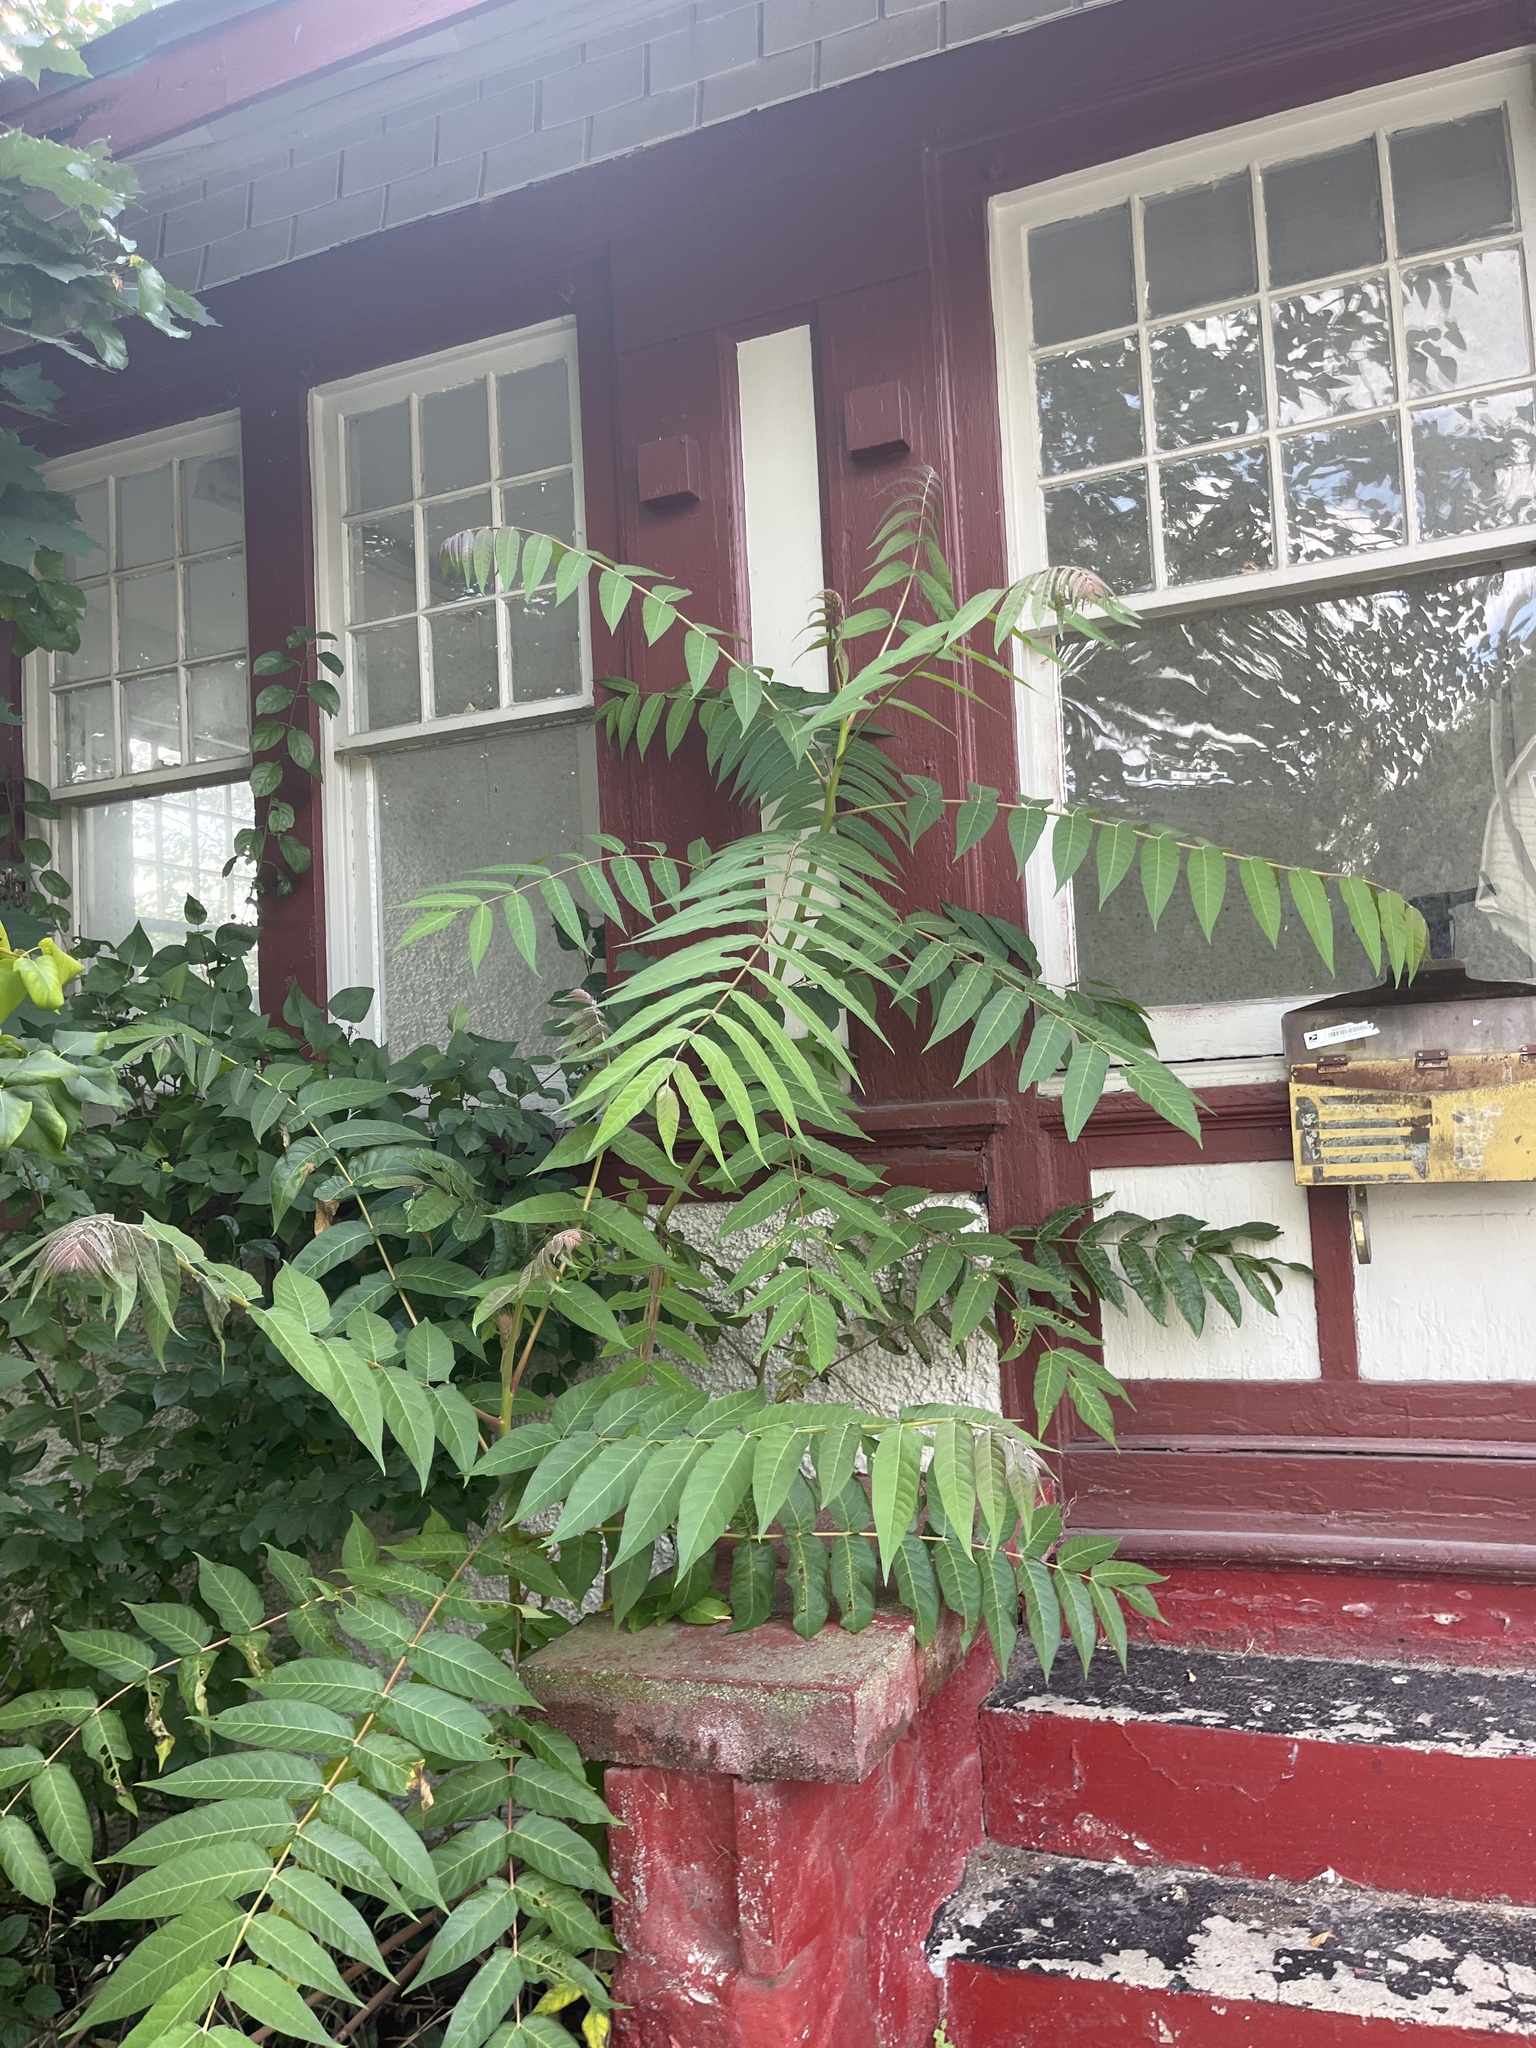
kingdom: Plantae
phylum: Tracheophyta
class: Magnoliopsida
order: Sapindales
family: Simaroubaceae
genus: Ailanthus
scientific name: Ailanthus altissima
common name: Tree-of-heaven
